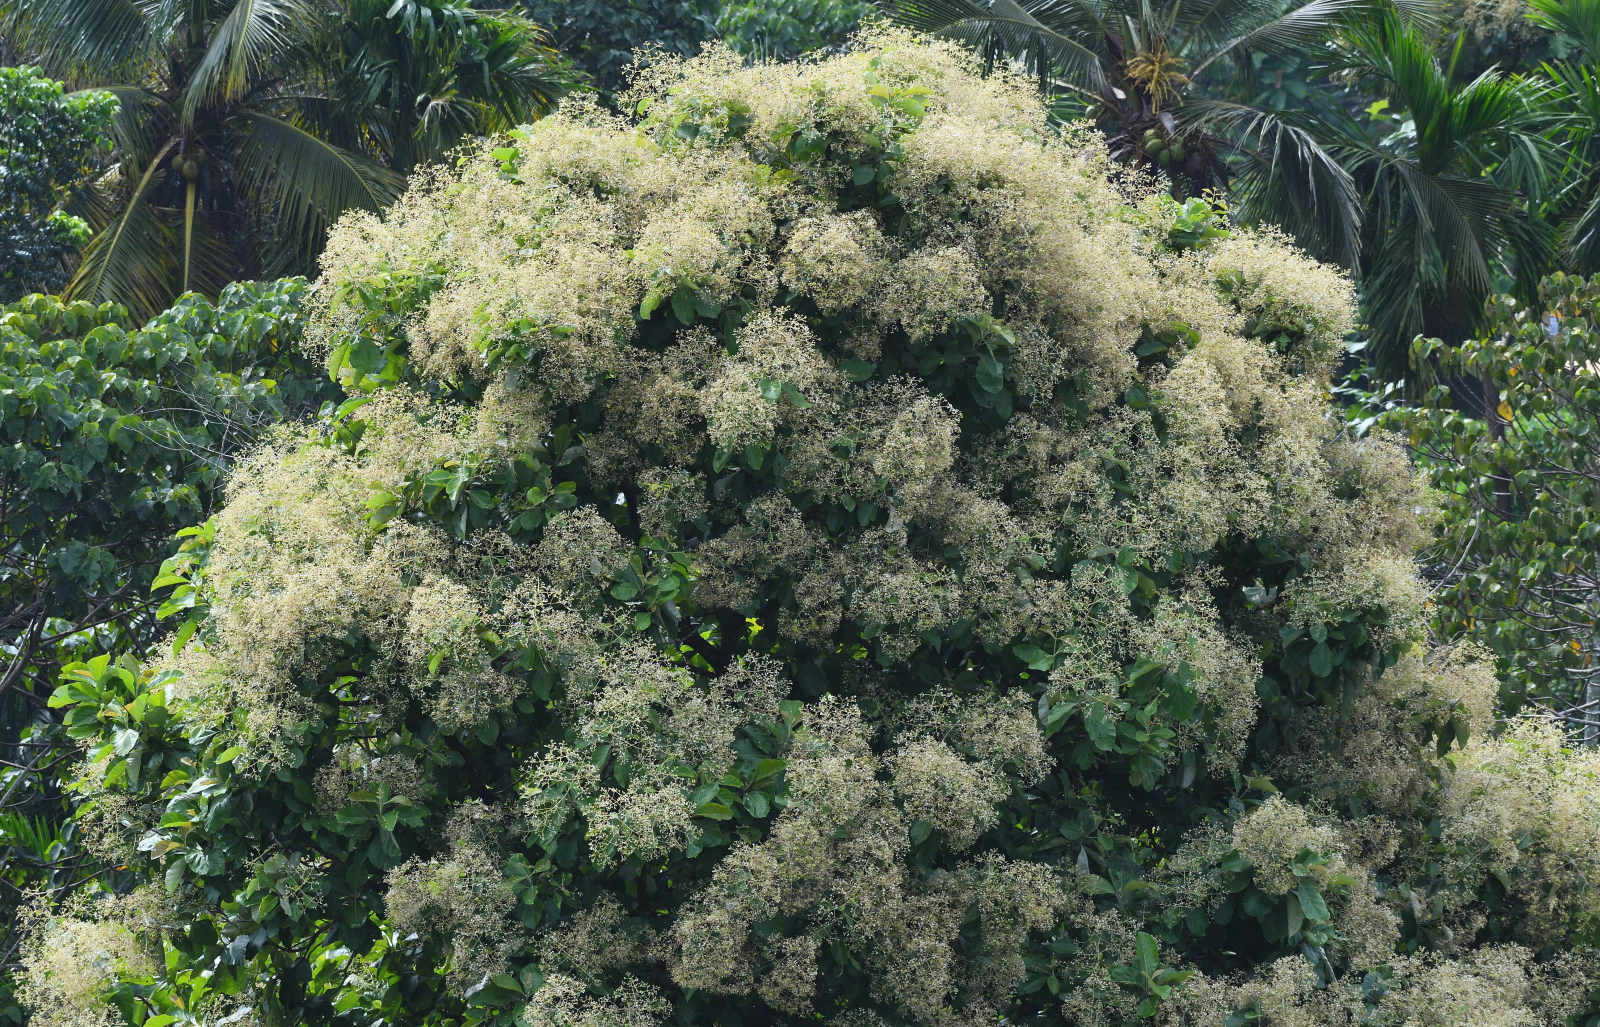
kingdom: Plantae
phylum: Tracheophyta
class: Magnoliopsida
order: Lamiales
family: Lamiaceae
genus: Tectona
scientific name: Tectona grandis
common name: Teak
